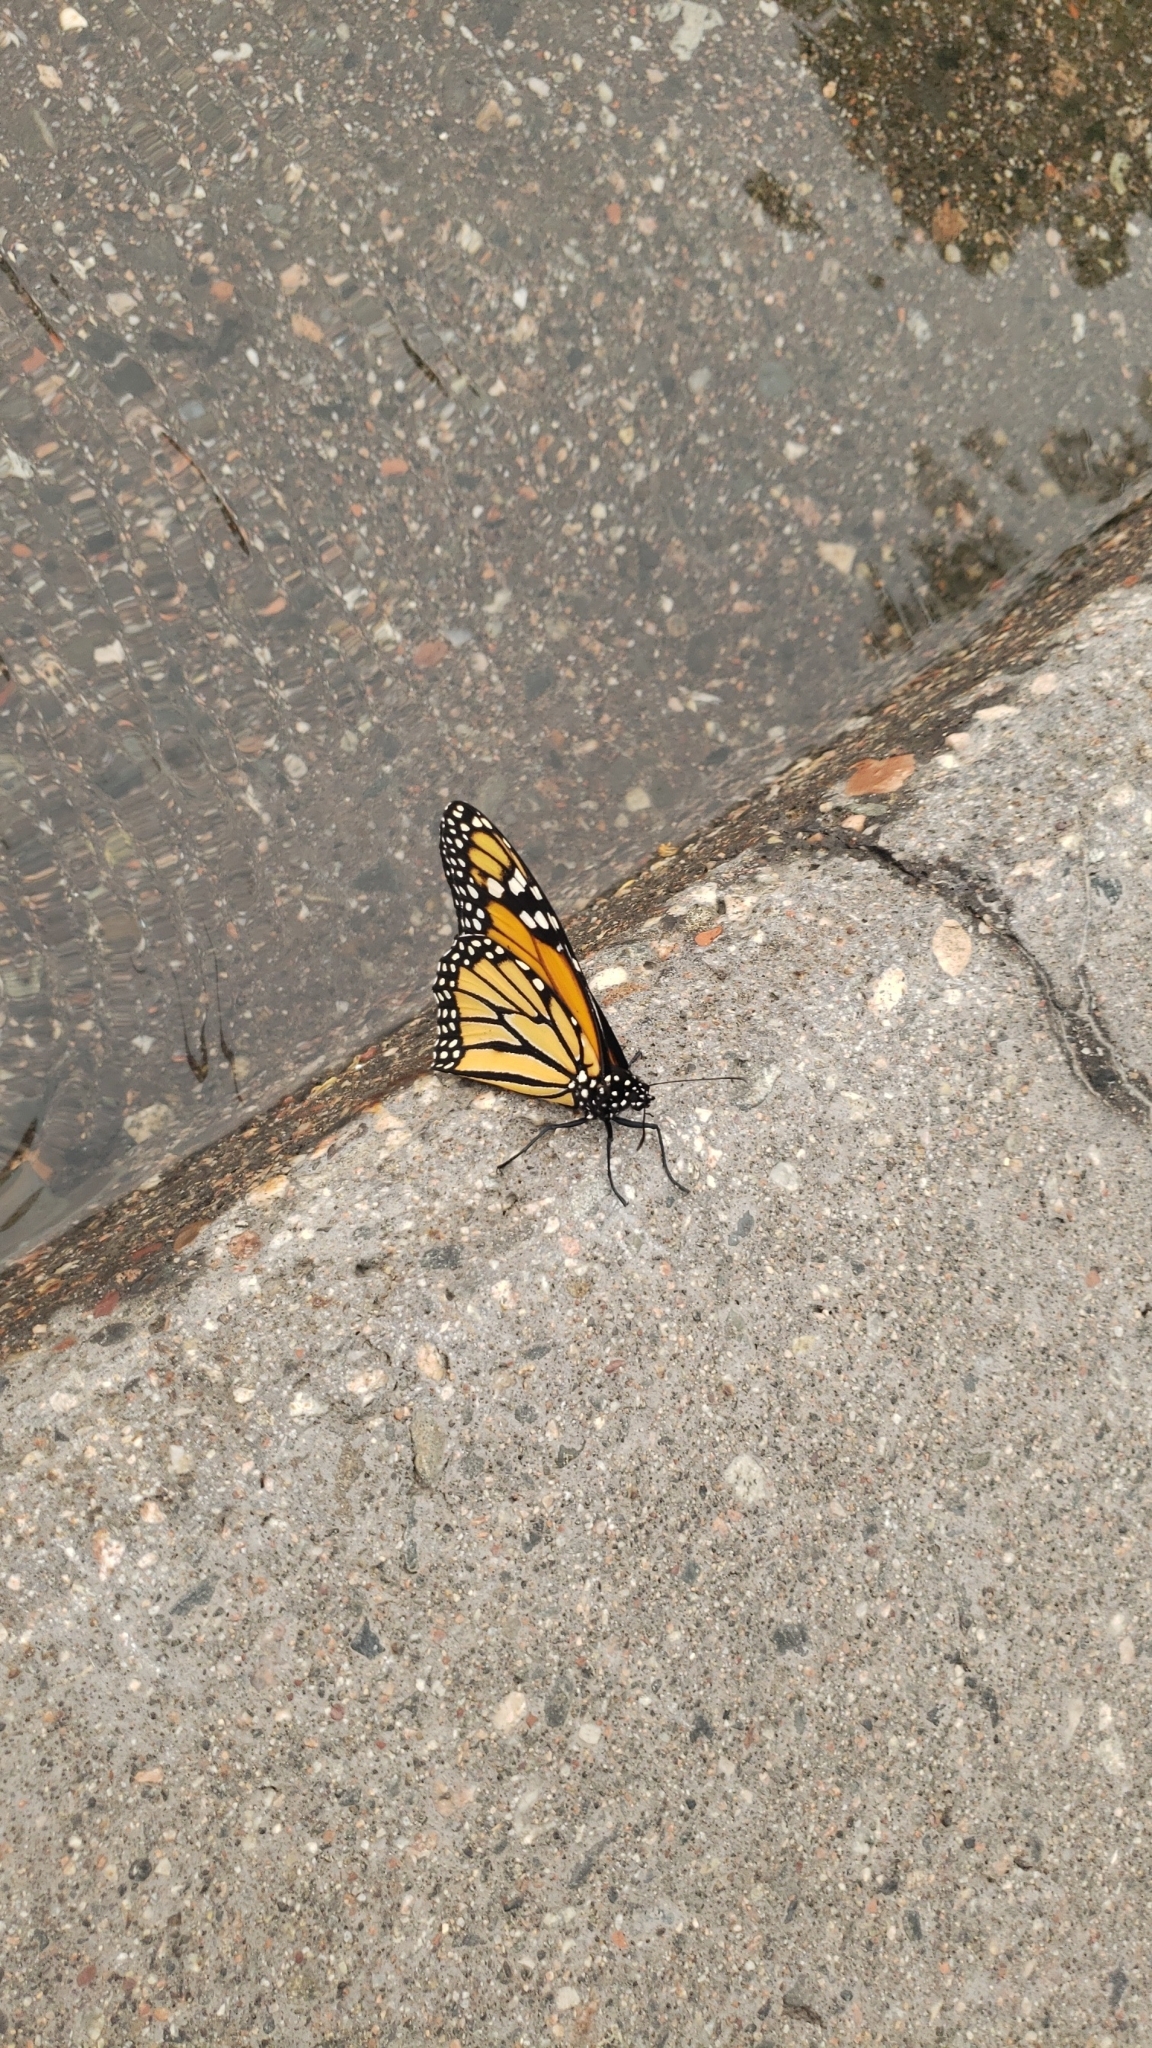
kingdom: Animalia
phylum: Arthropoda
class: Insecta
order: Lepidoptera
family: Nymphalidae
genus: Danaus
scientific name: Danaus plexippus
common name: Monarch
